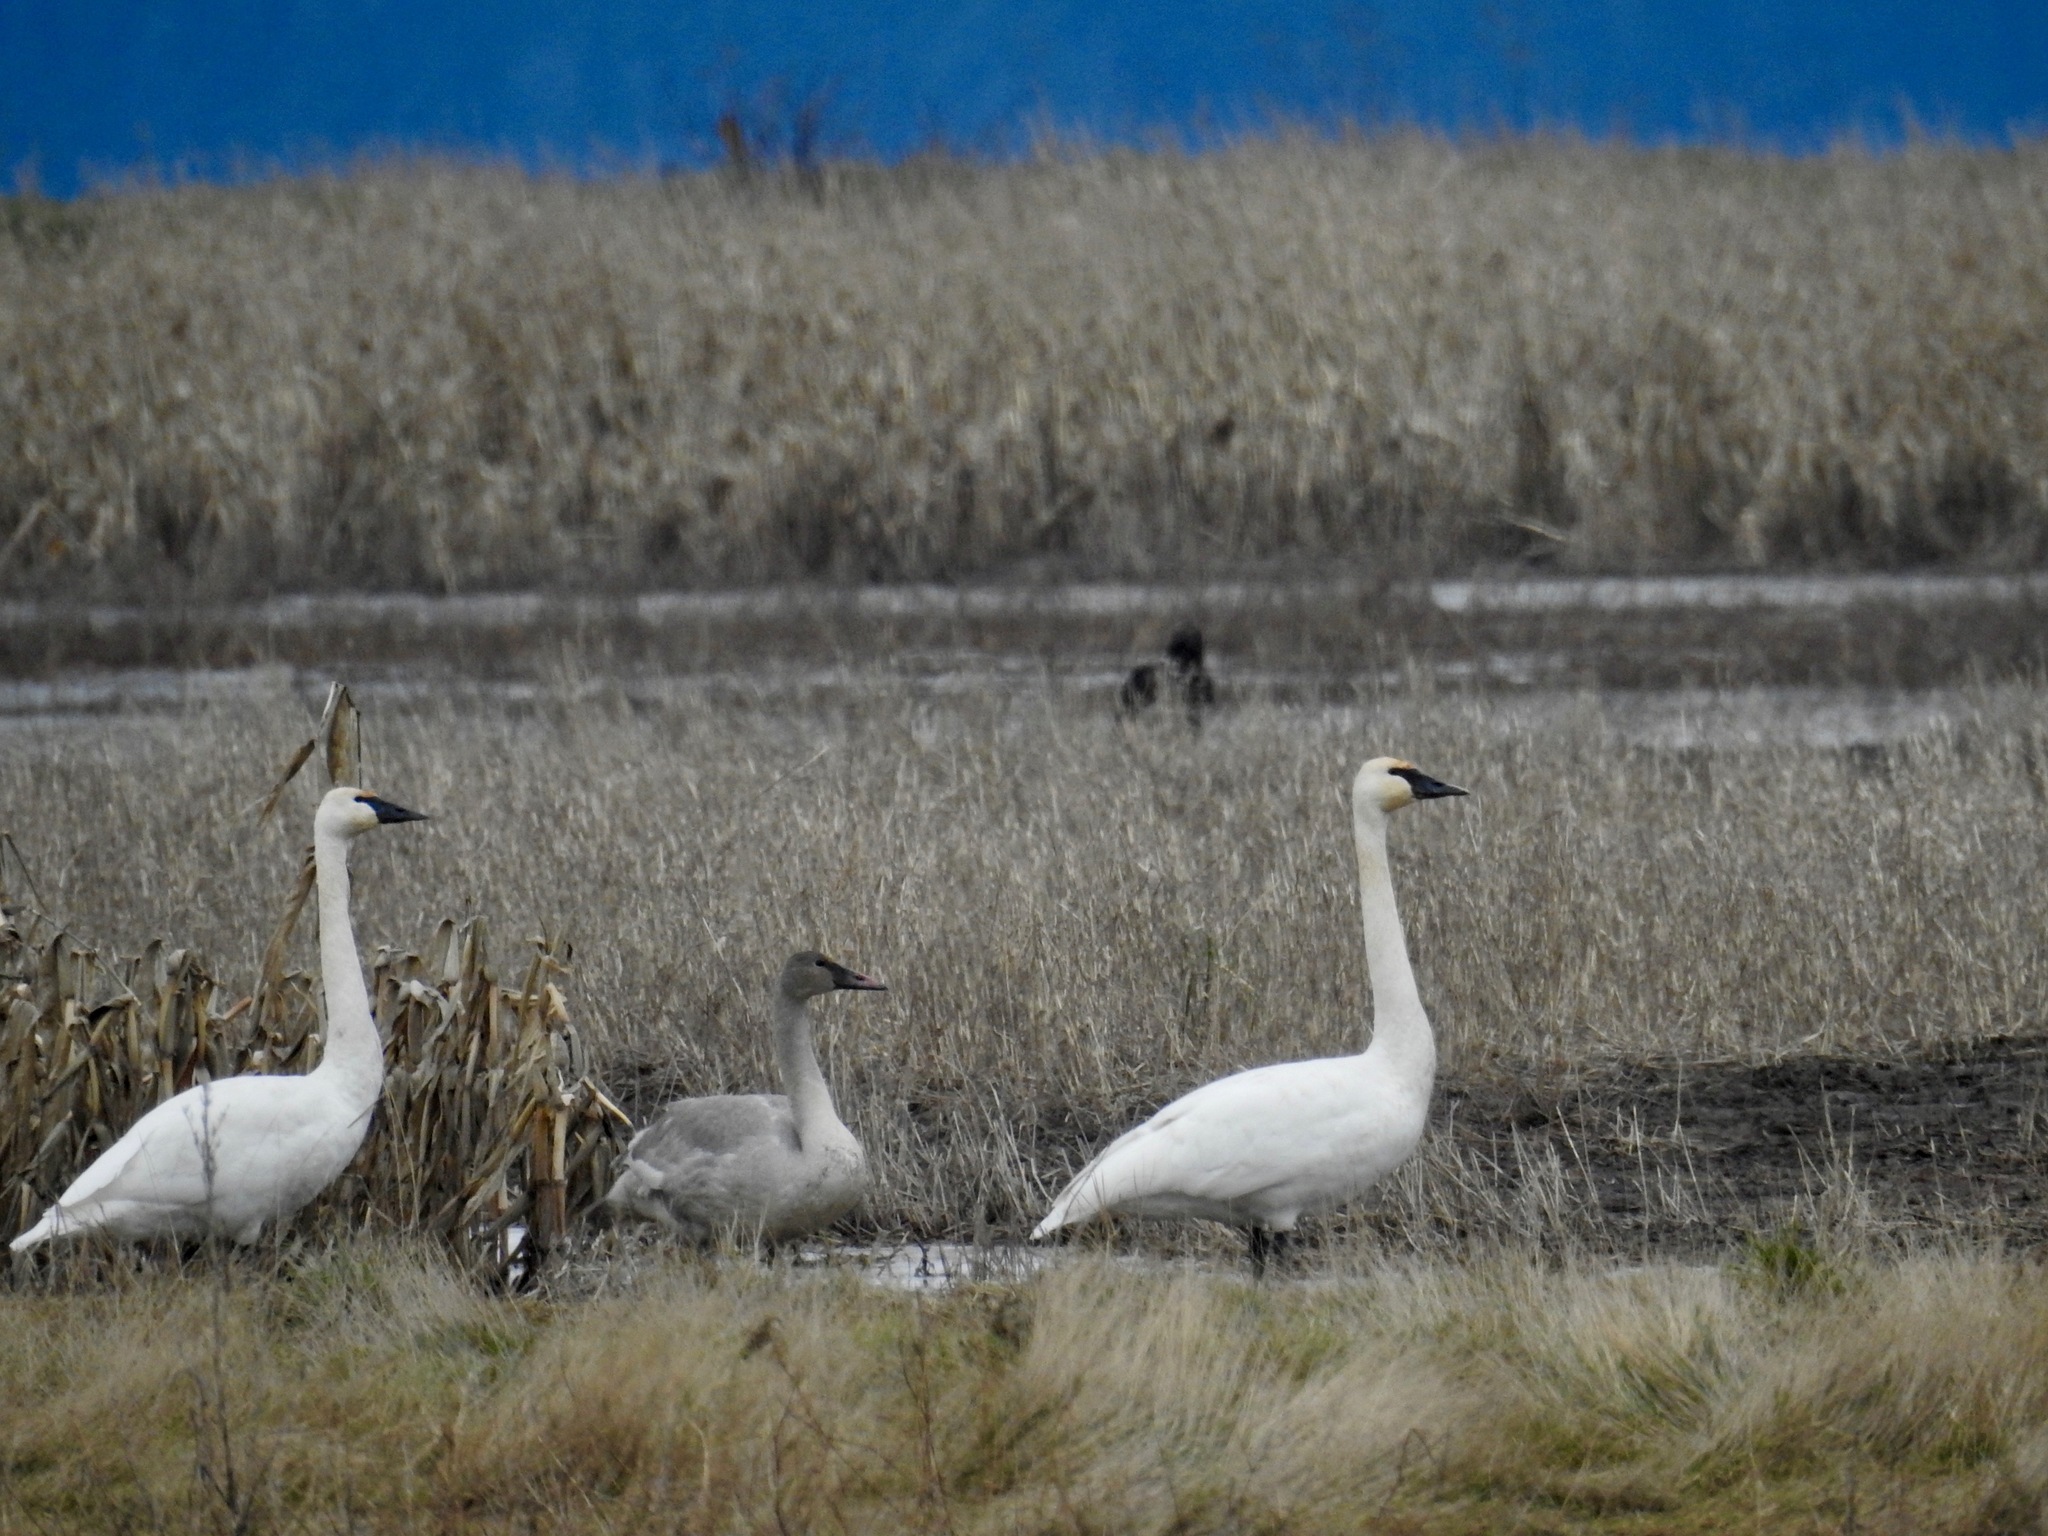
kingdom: Animalia
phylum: Chordata
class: Aves
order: Anseriformes
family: Anatidae
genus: Cygnus
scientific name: Cygnus buccinator
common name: Trumpeter swan
